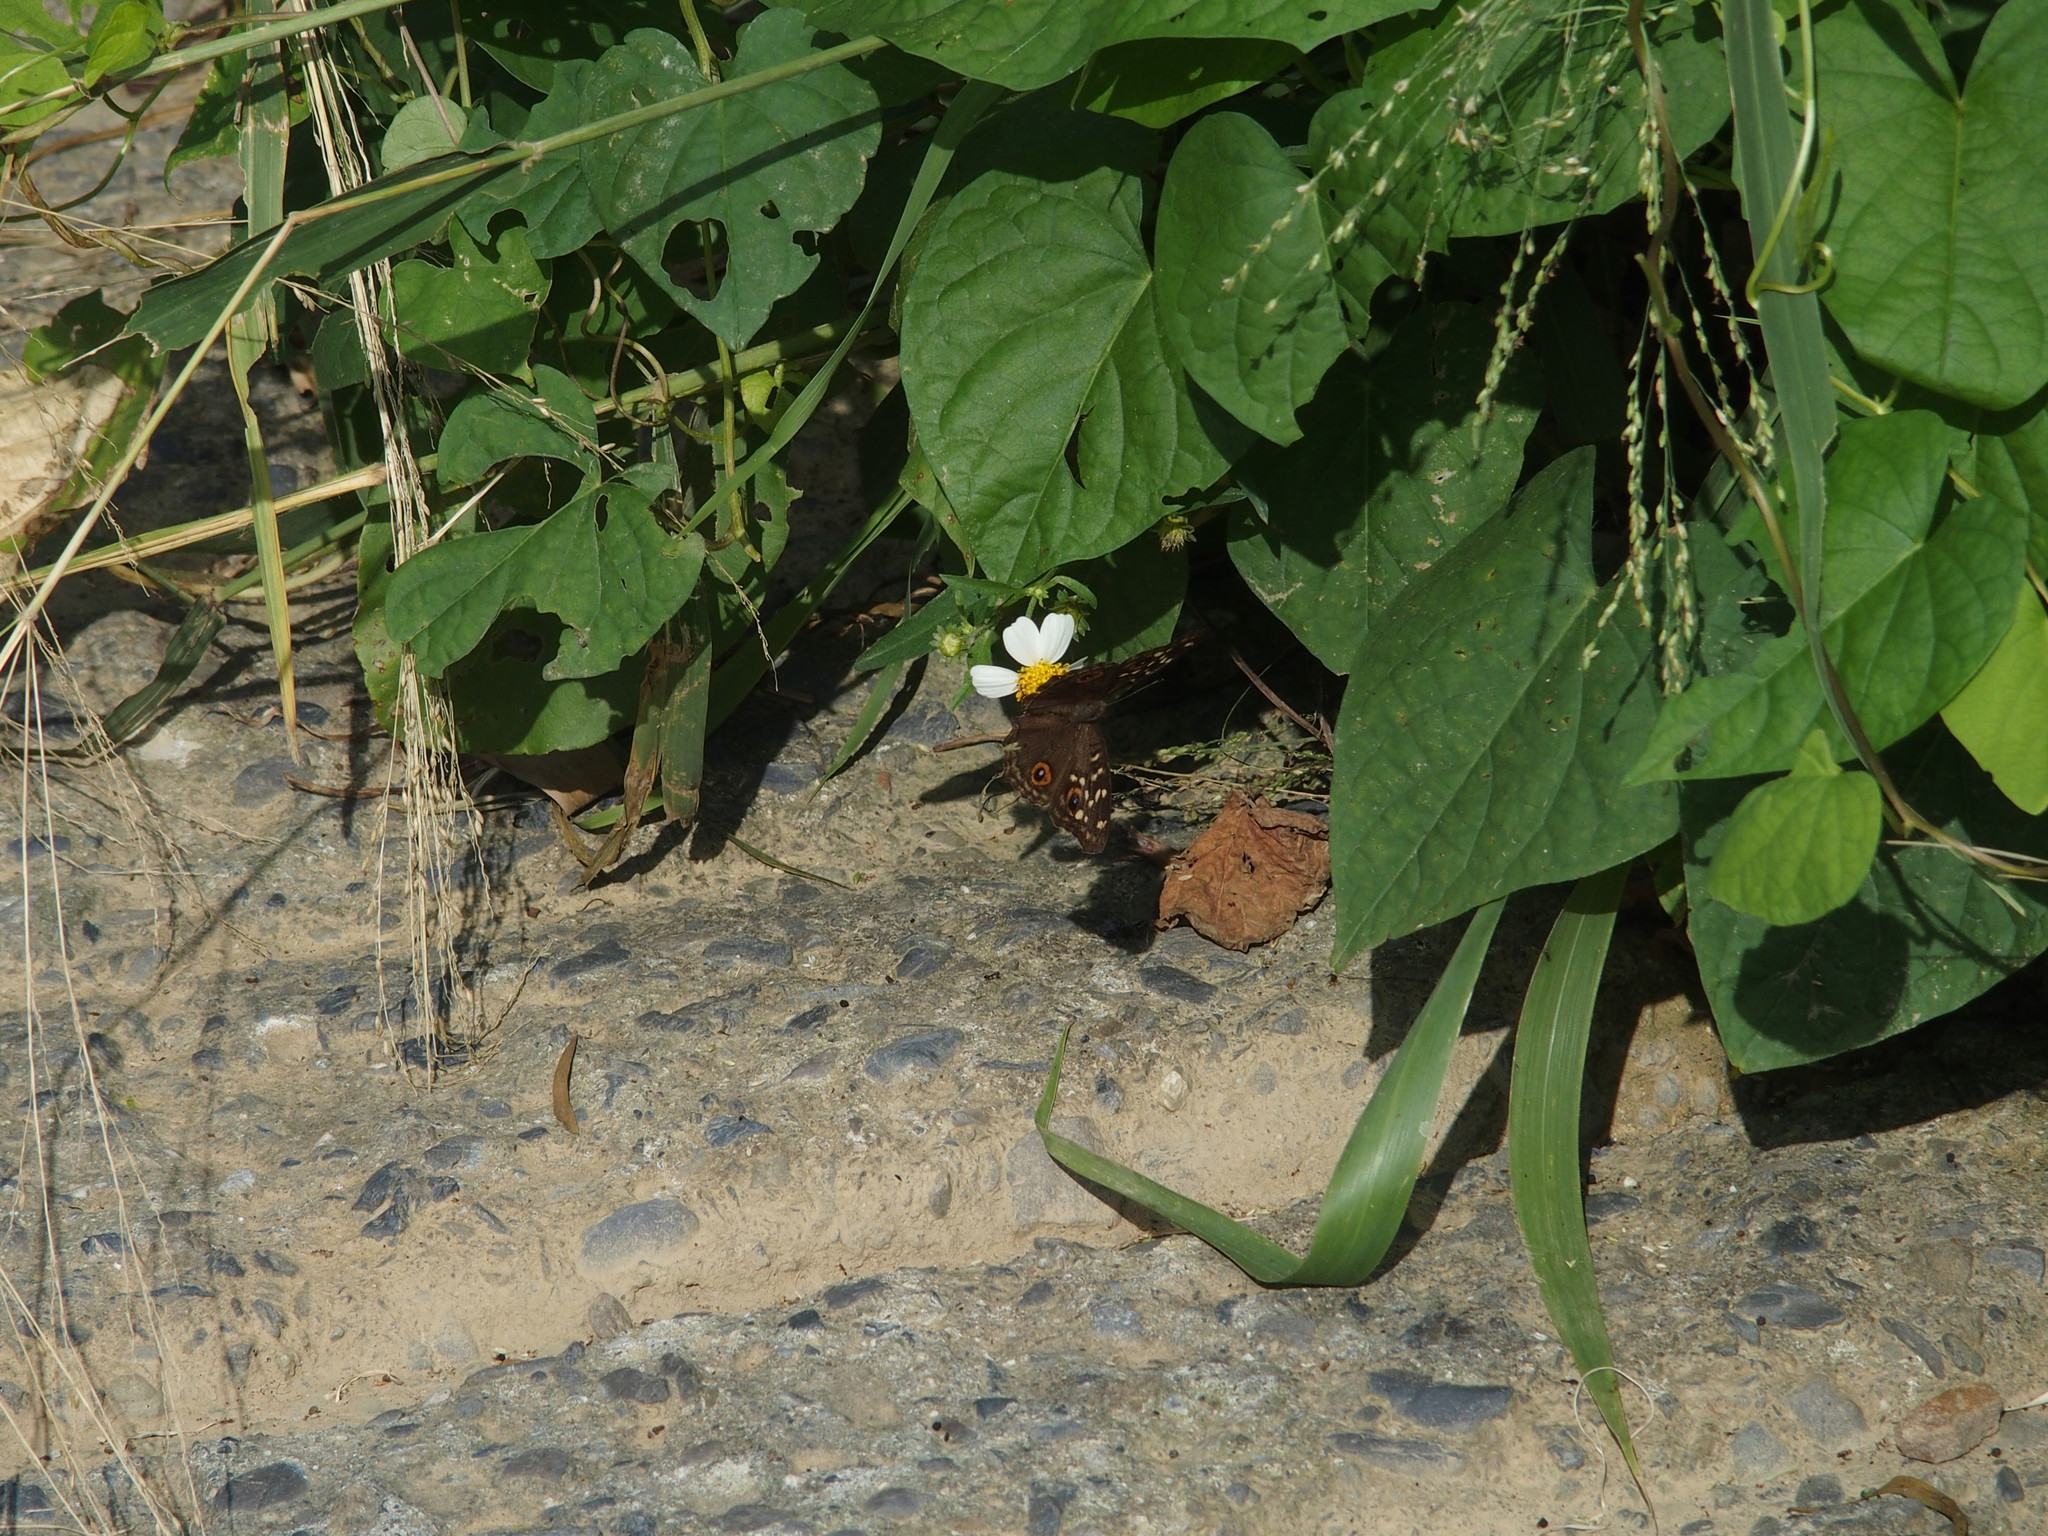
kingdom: Animalia
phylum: Arthropoda
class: Insecta
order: Lepidoptera
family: Nymphalidae
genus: Junonia
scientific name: Junonia lemonias
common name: Lemon pansy
